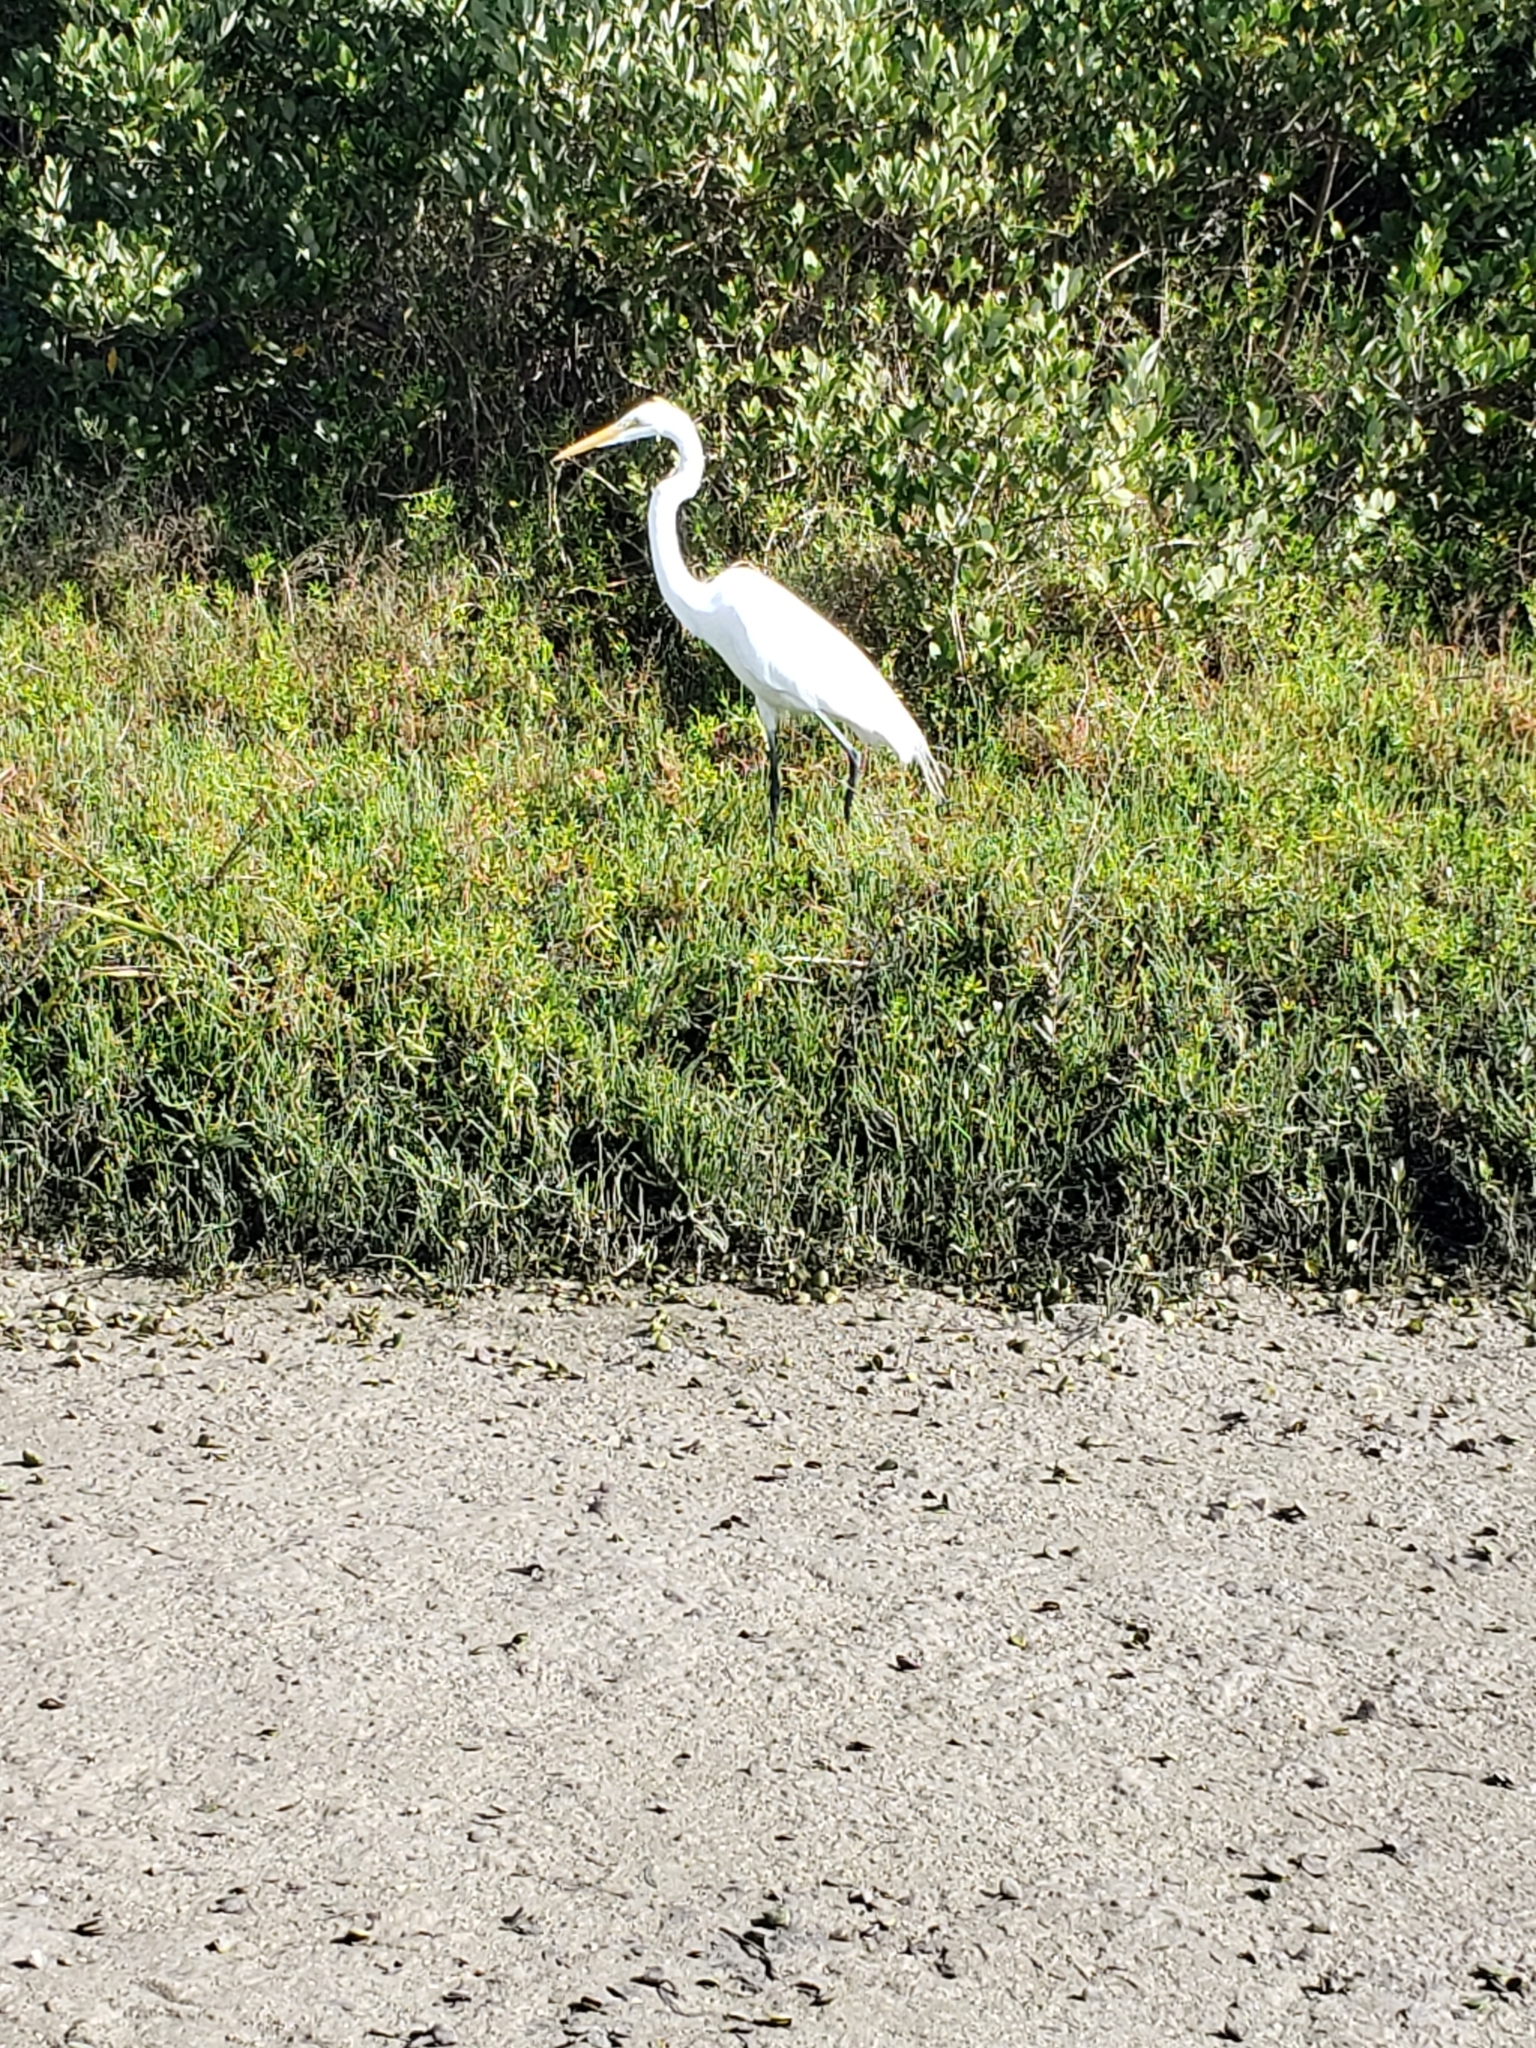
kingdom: Animalia
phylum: Chordata
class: Aves
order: Pelecaniformes
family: Ardeidae
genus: Ardea
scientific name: Ardea alba
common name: Great egret
